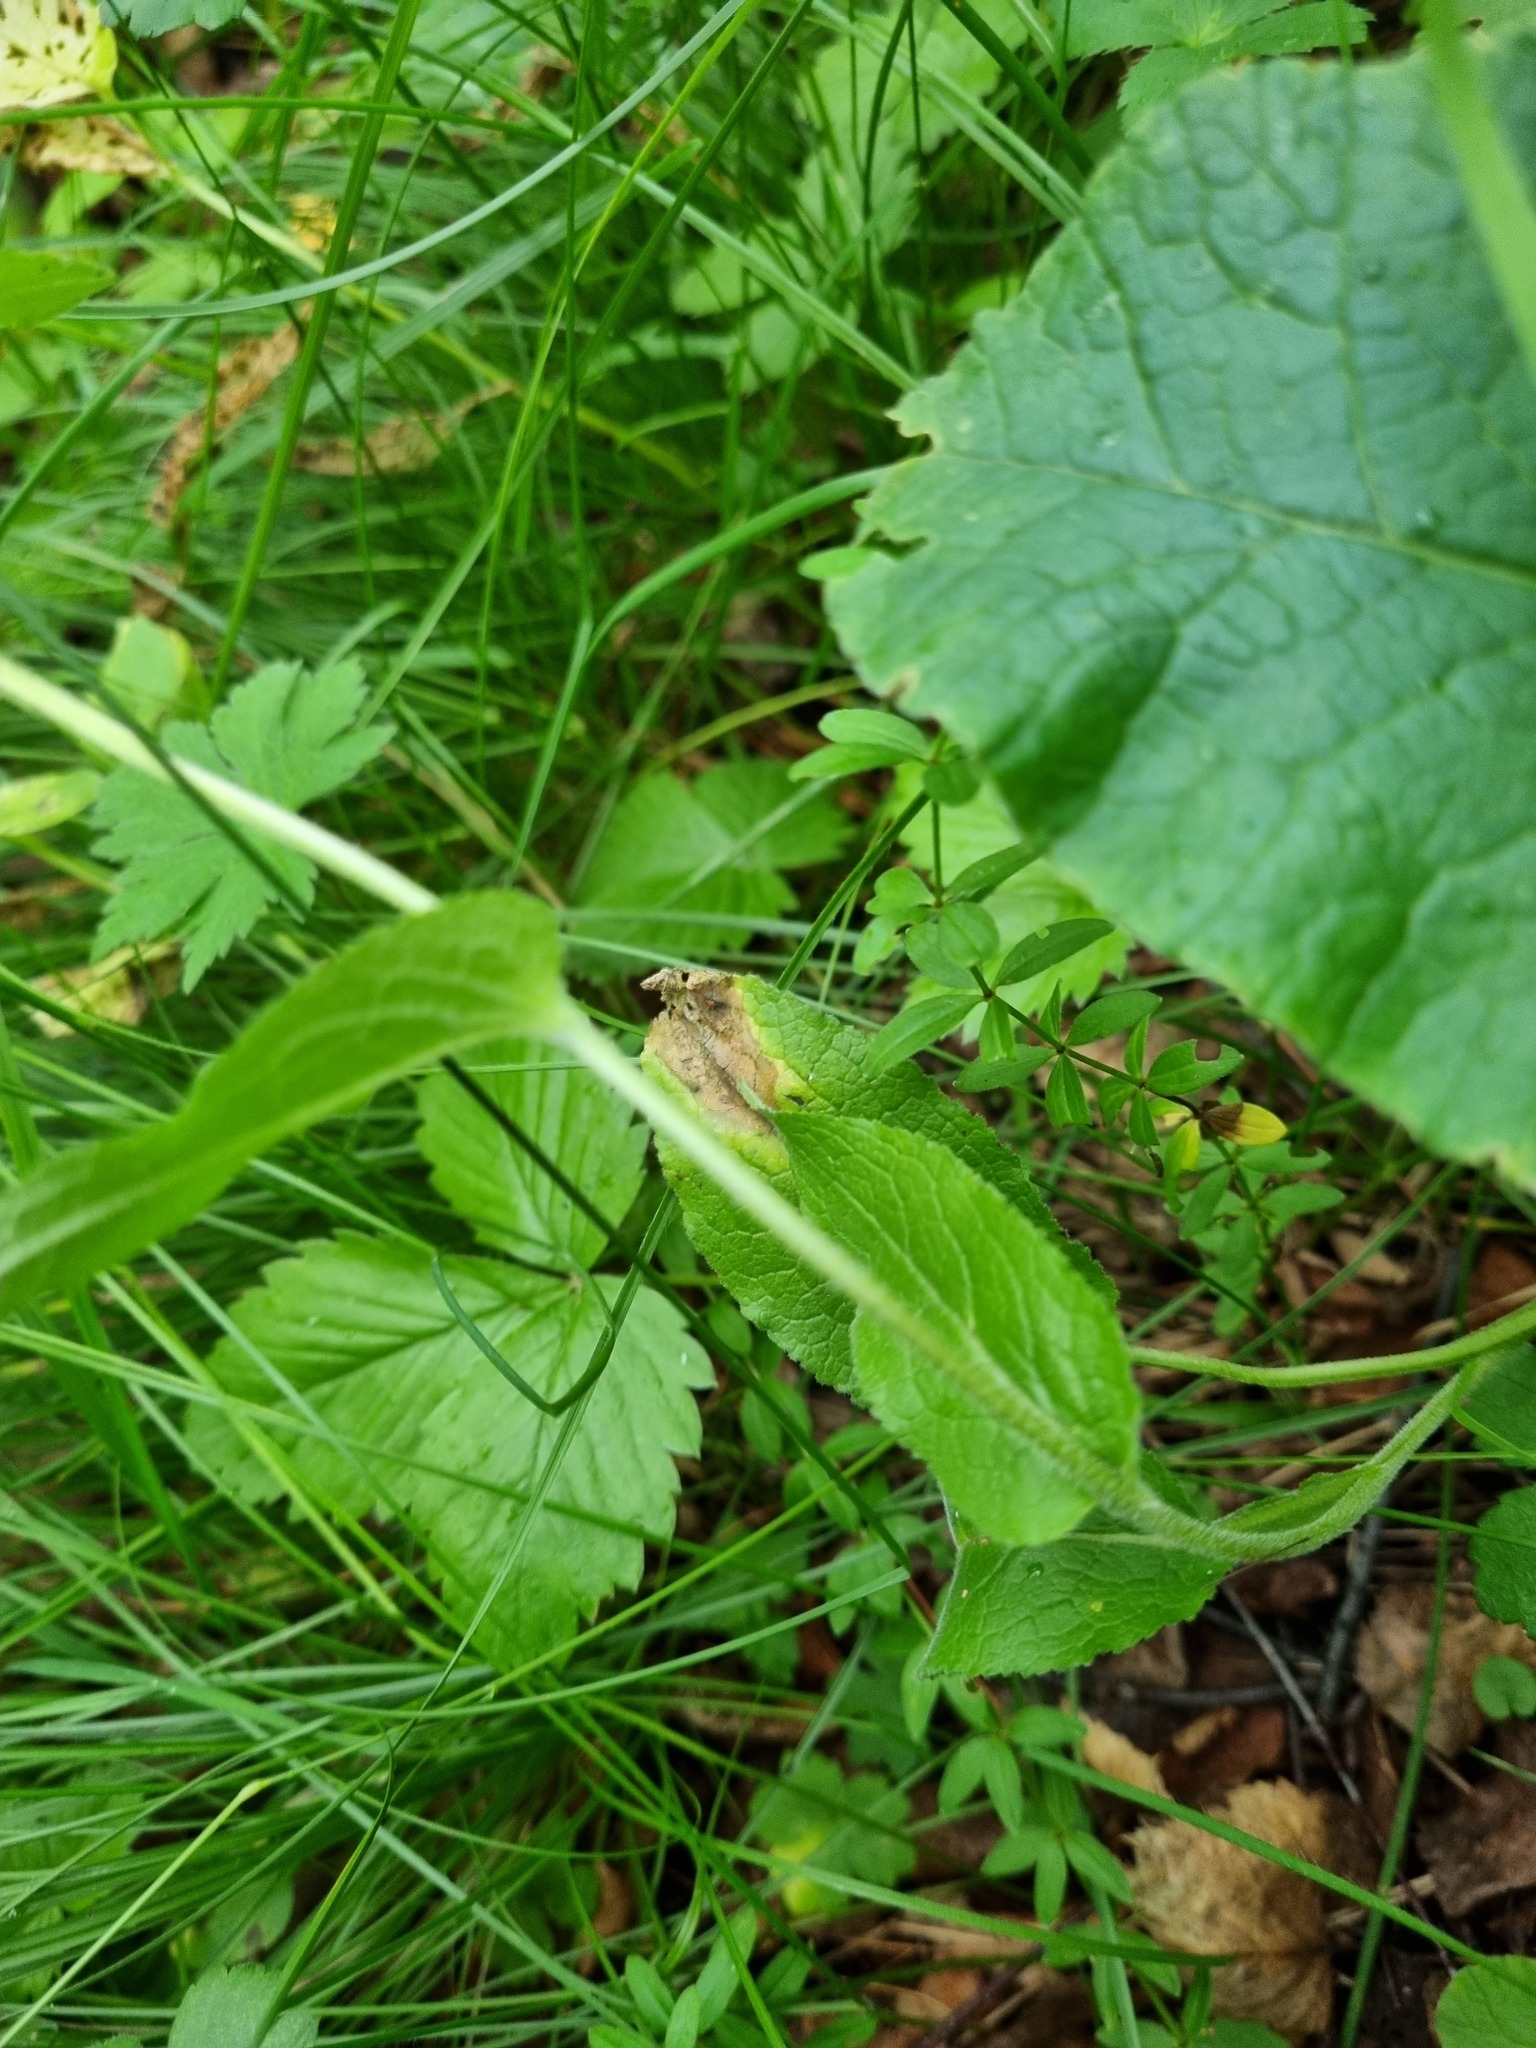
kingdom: Plantae
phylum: Tracheophyta
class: Magnoliopsida
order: Asterales
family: Campanulaceae
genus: Campanula
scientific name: Campanula glomerata
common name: Clustered bellflower
